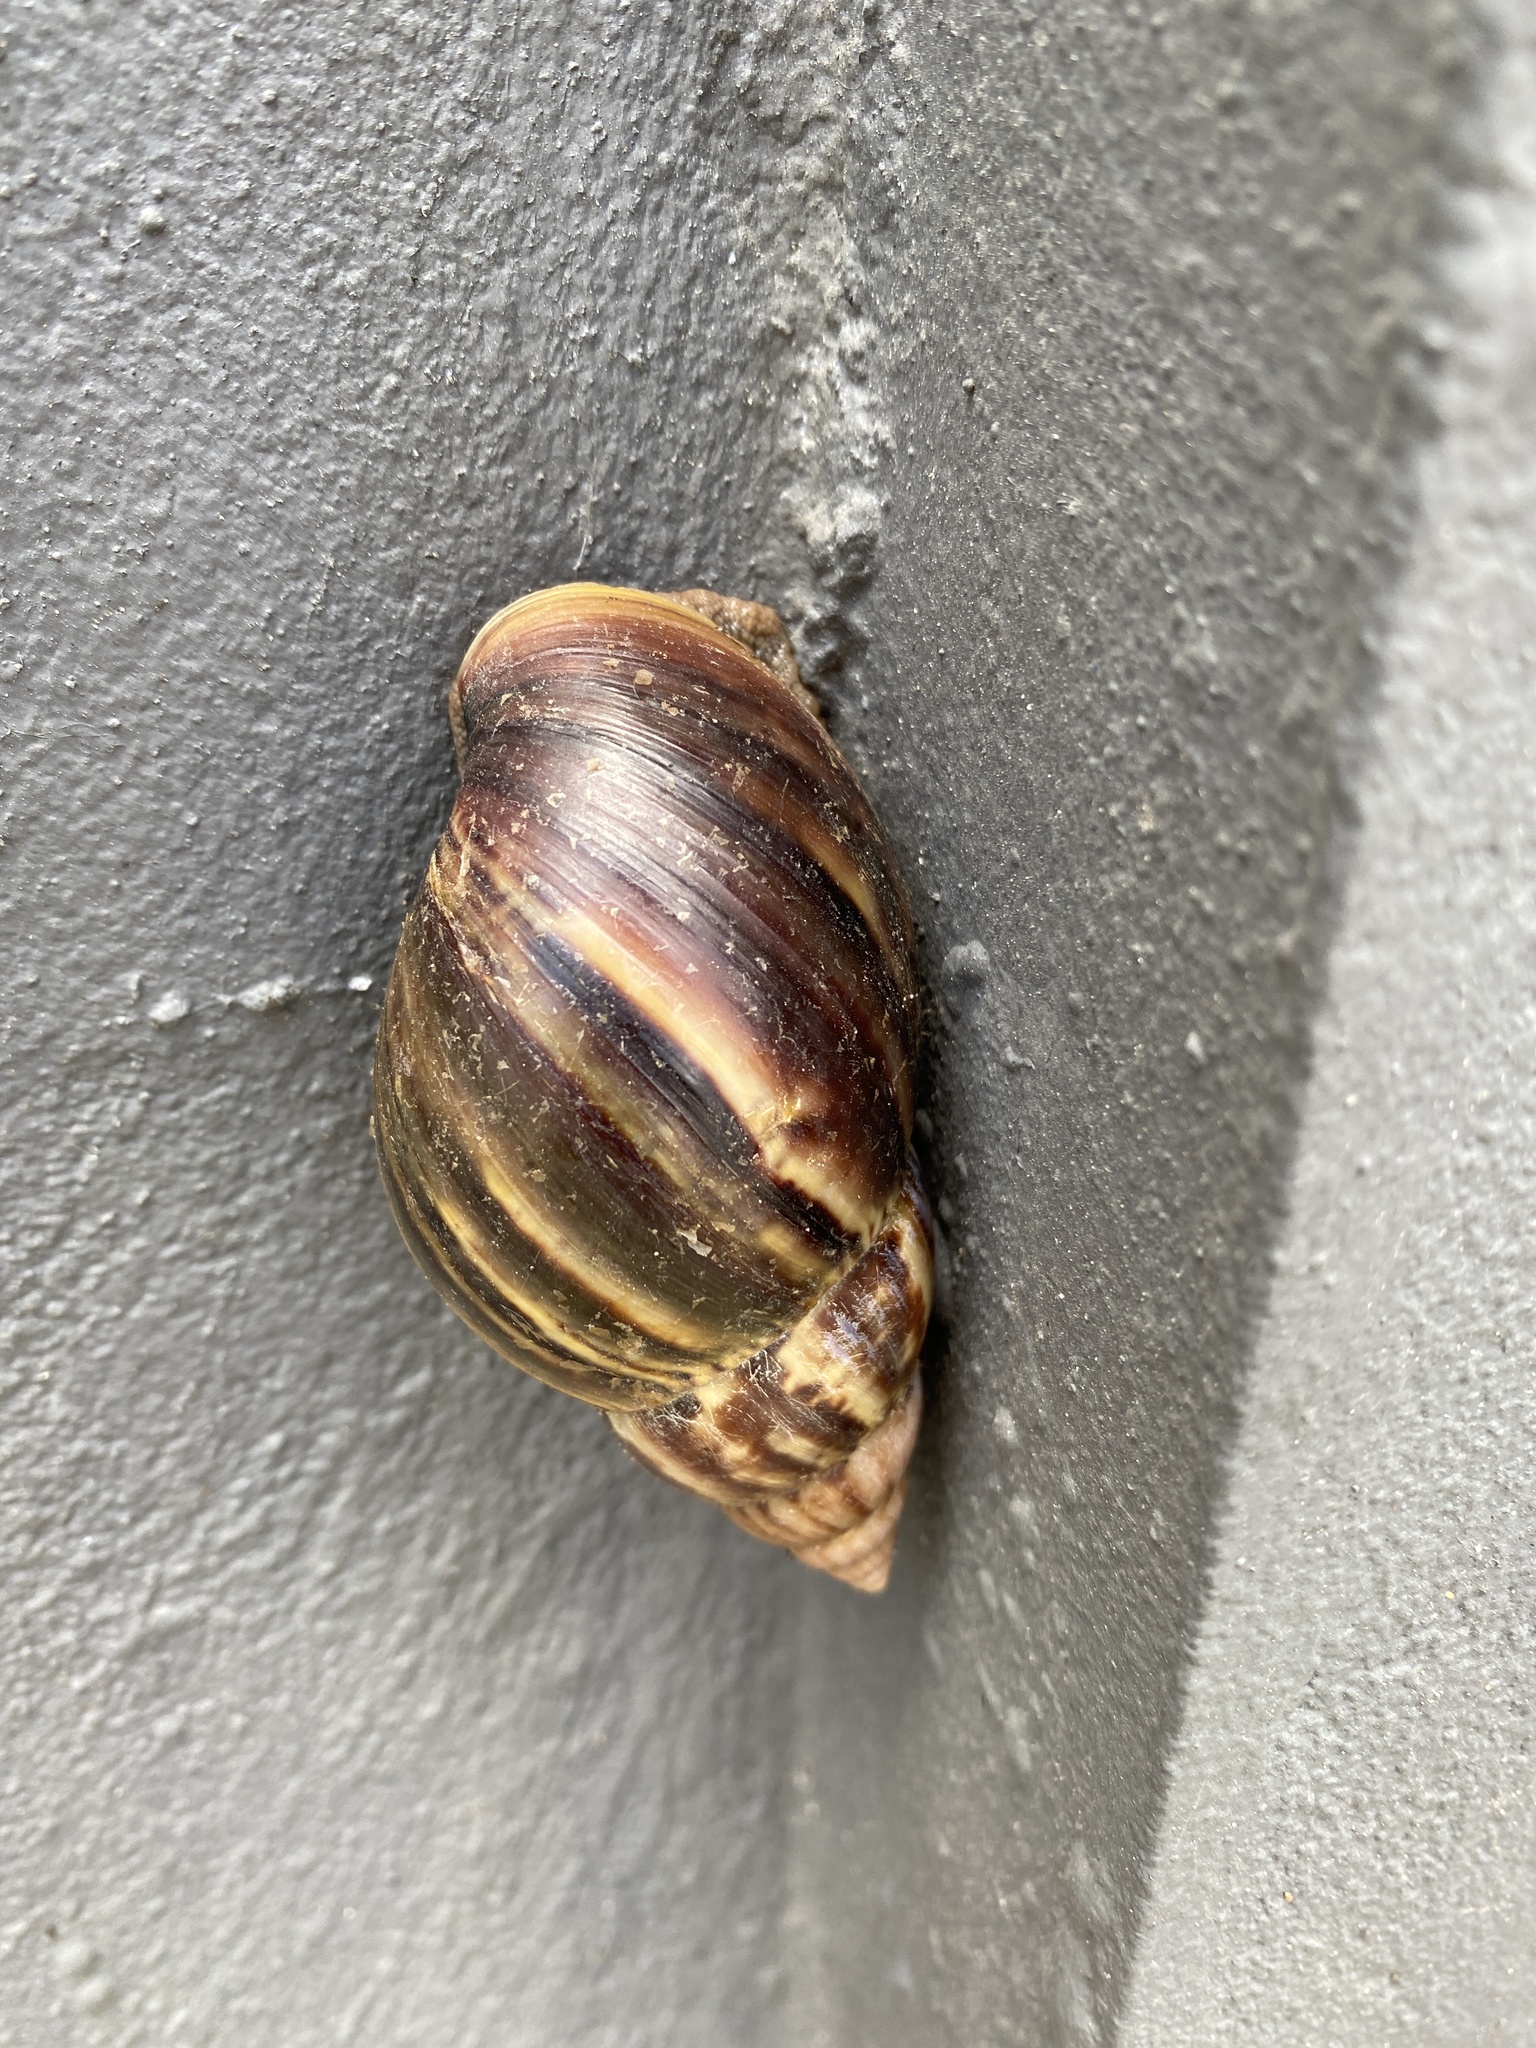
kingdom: Animalia
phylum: Mollusca
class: Gastropoda
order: Stylommatophora
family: Achatinidae
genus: Lissachatina
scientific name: Lissachatina fulica
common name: Giant african snail
